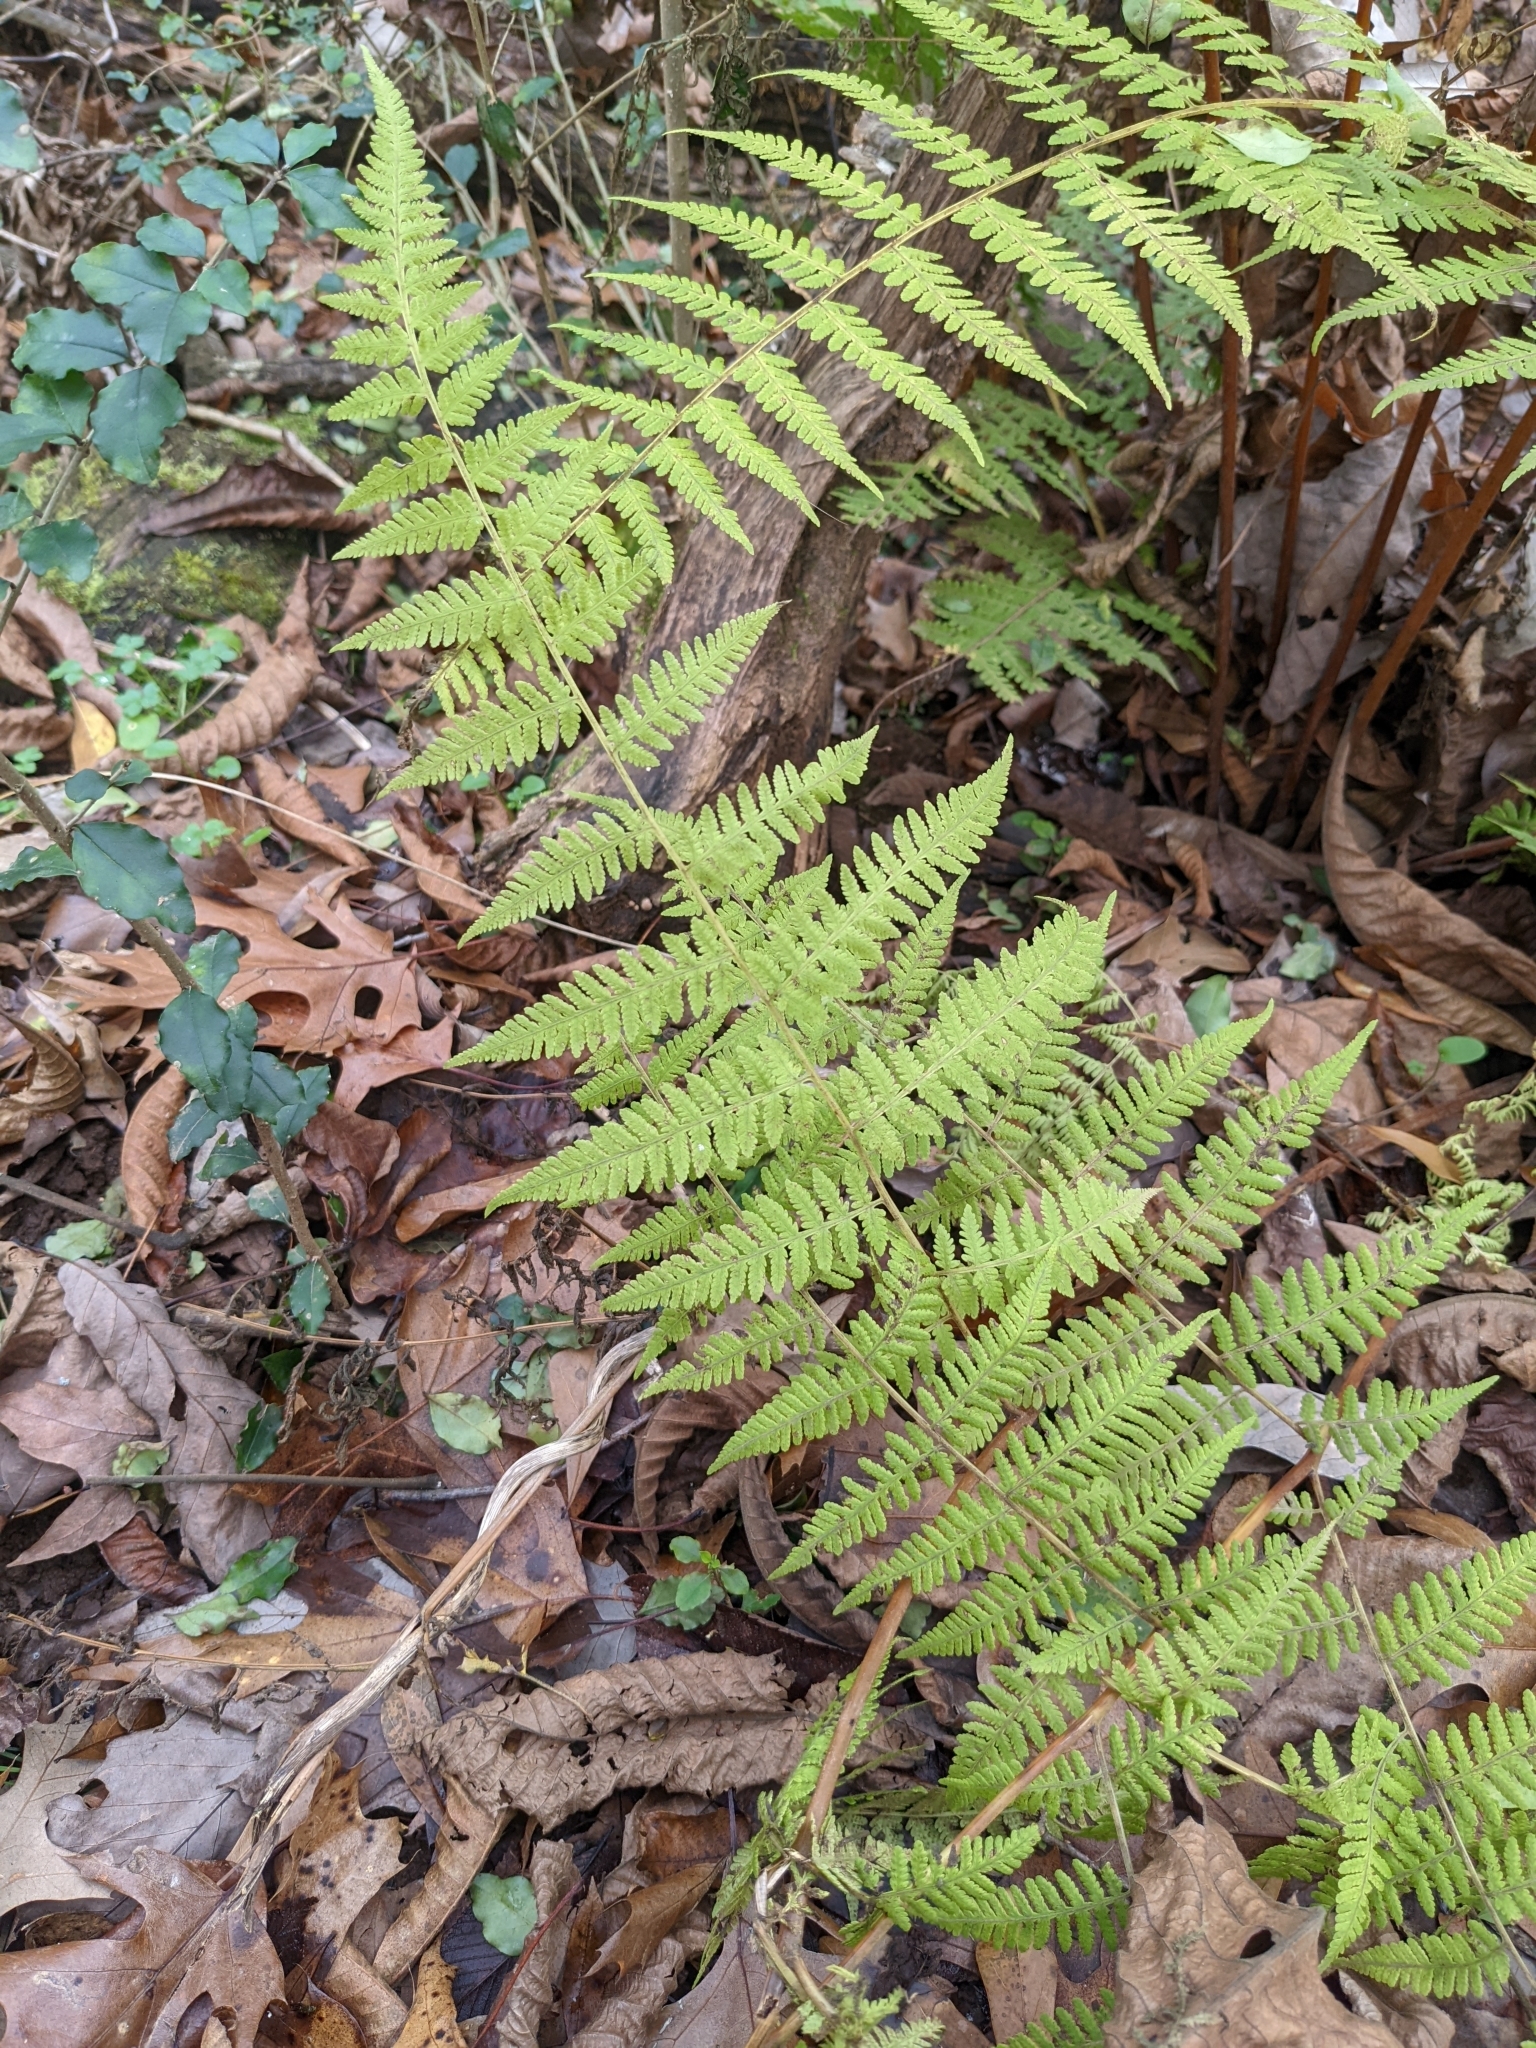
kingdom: Plantae
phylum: Tracheophyta
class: Polypodiopsida
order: Polypodiales
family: Thelypteridaceae
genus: Macrothelypteris
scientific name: Macrothelypteris torresiana
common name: Swordfern
